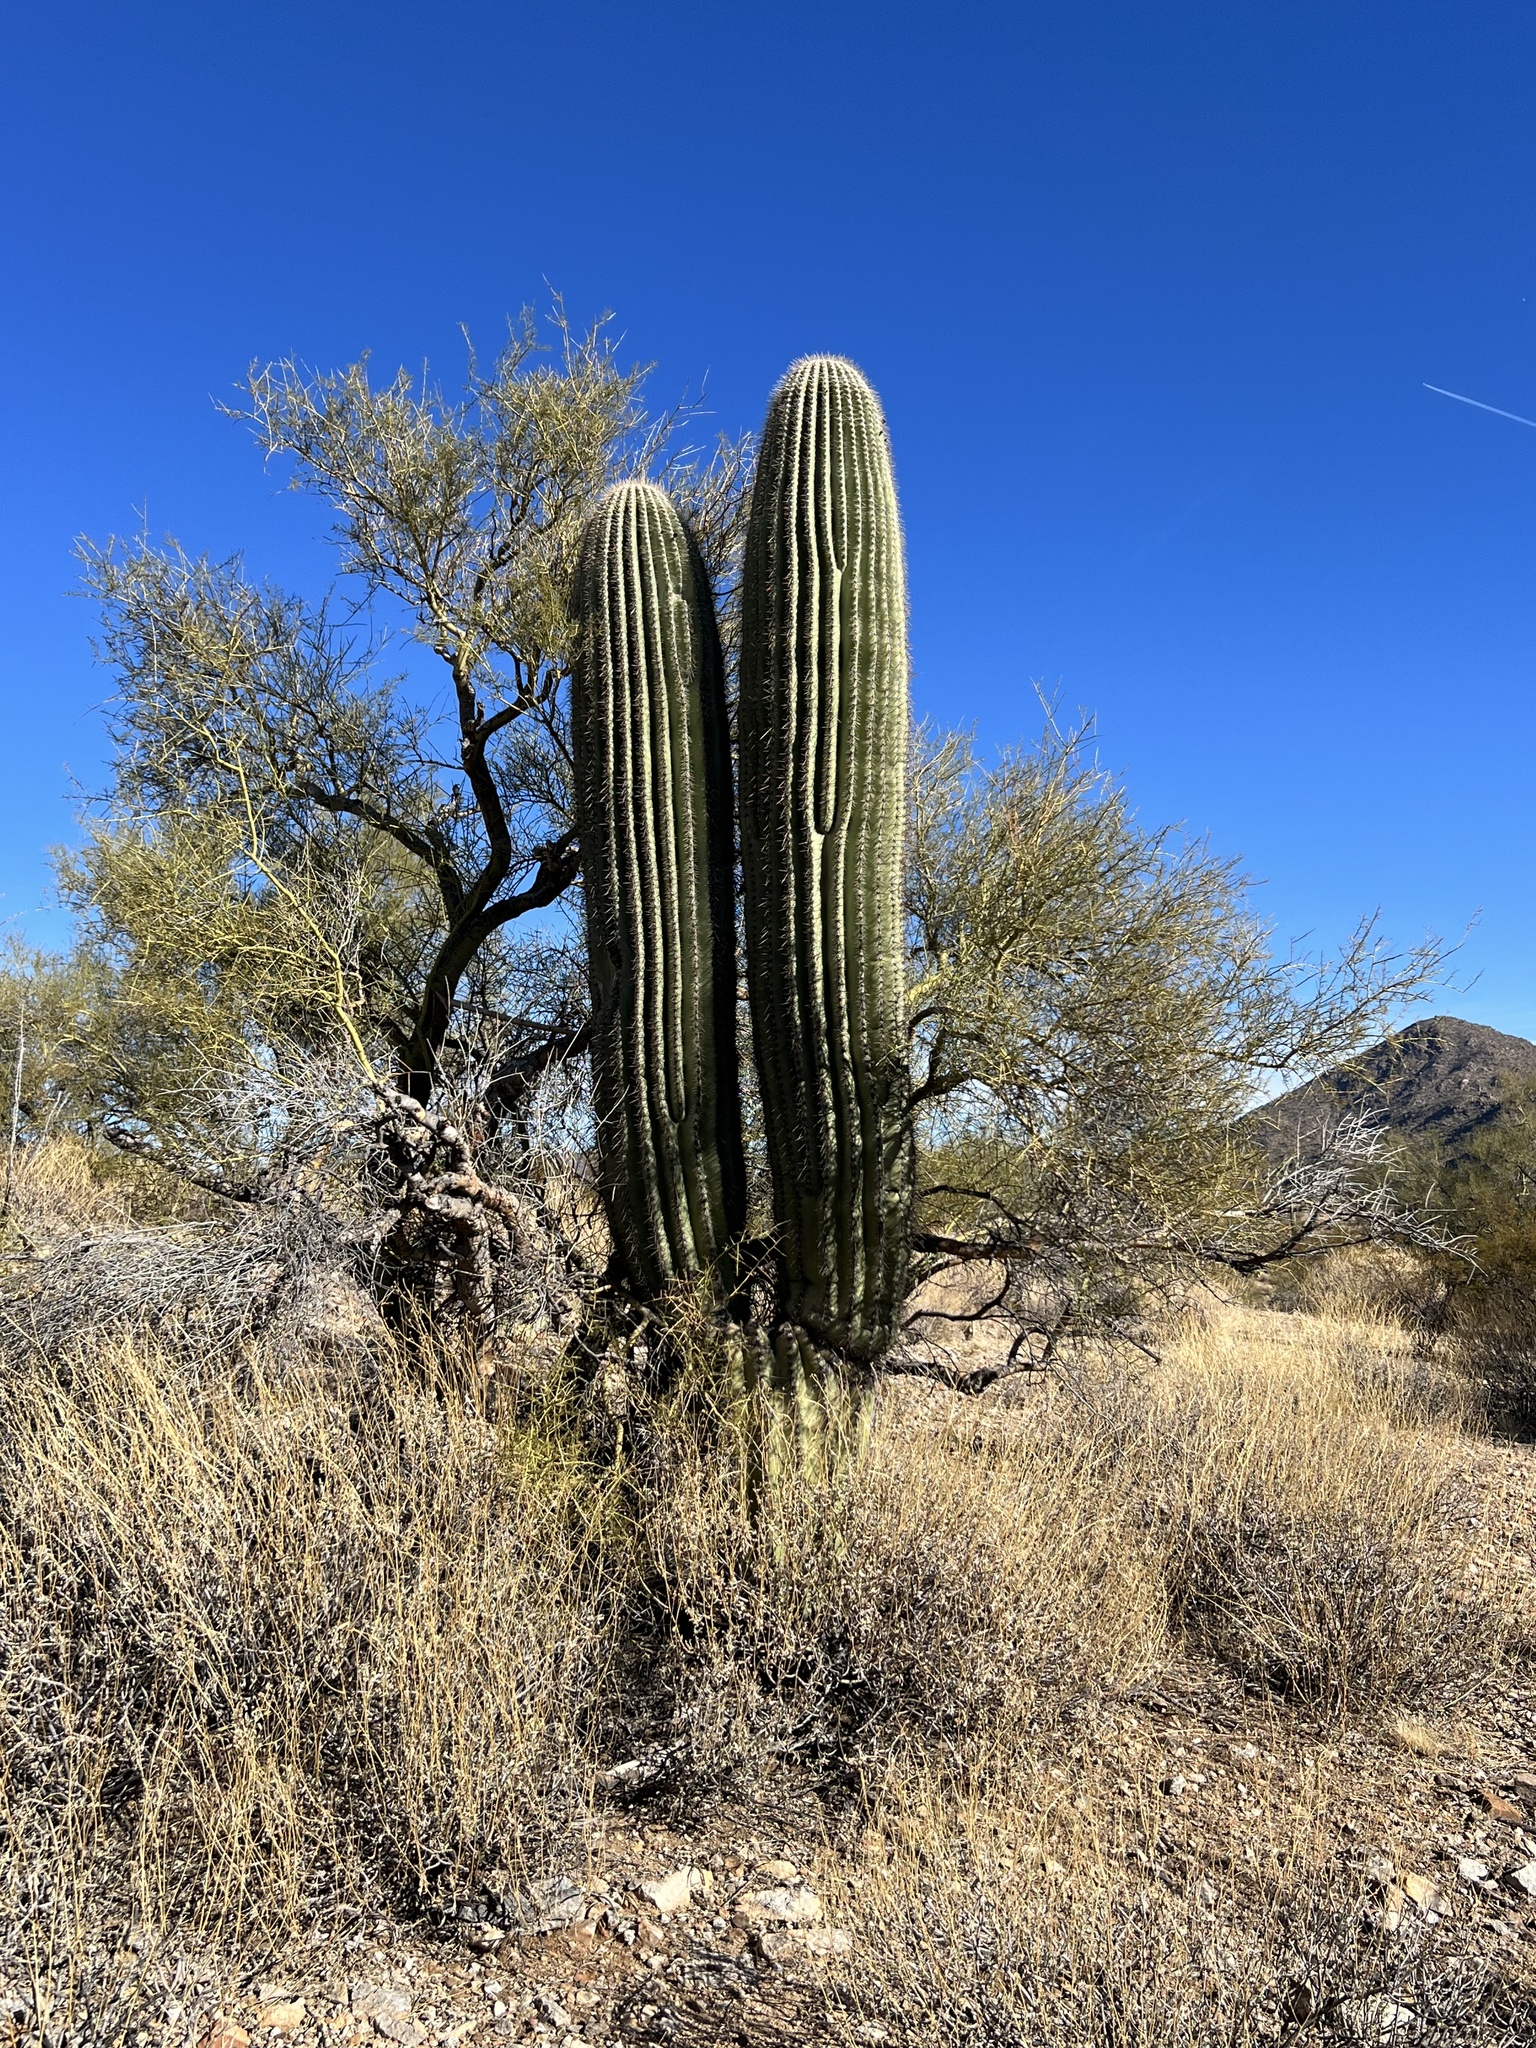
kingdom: Plantae
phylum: Tracheophyta
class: Magnoliopsida
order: Caryophyllales
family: Cactaceae
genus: Carnegiea
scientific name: Carnegiea gigantea
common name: Saguaro
